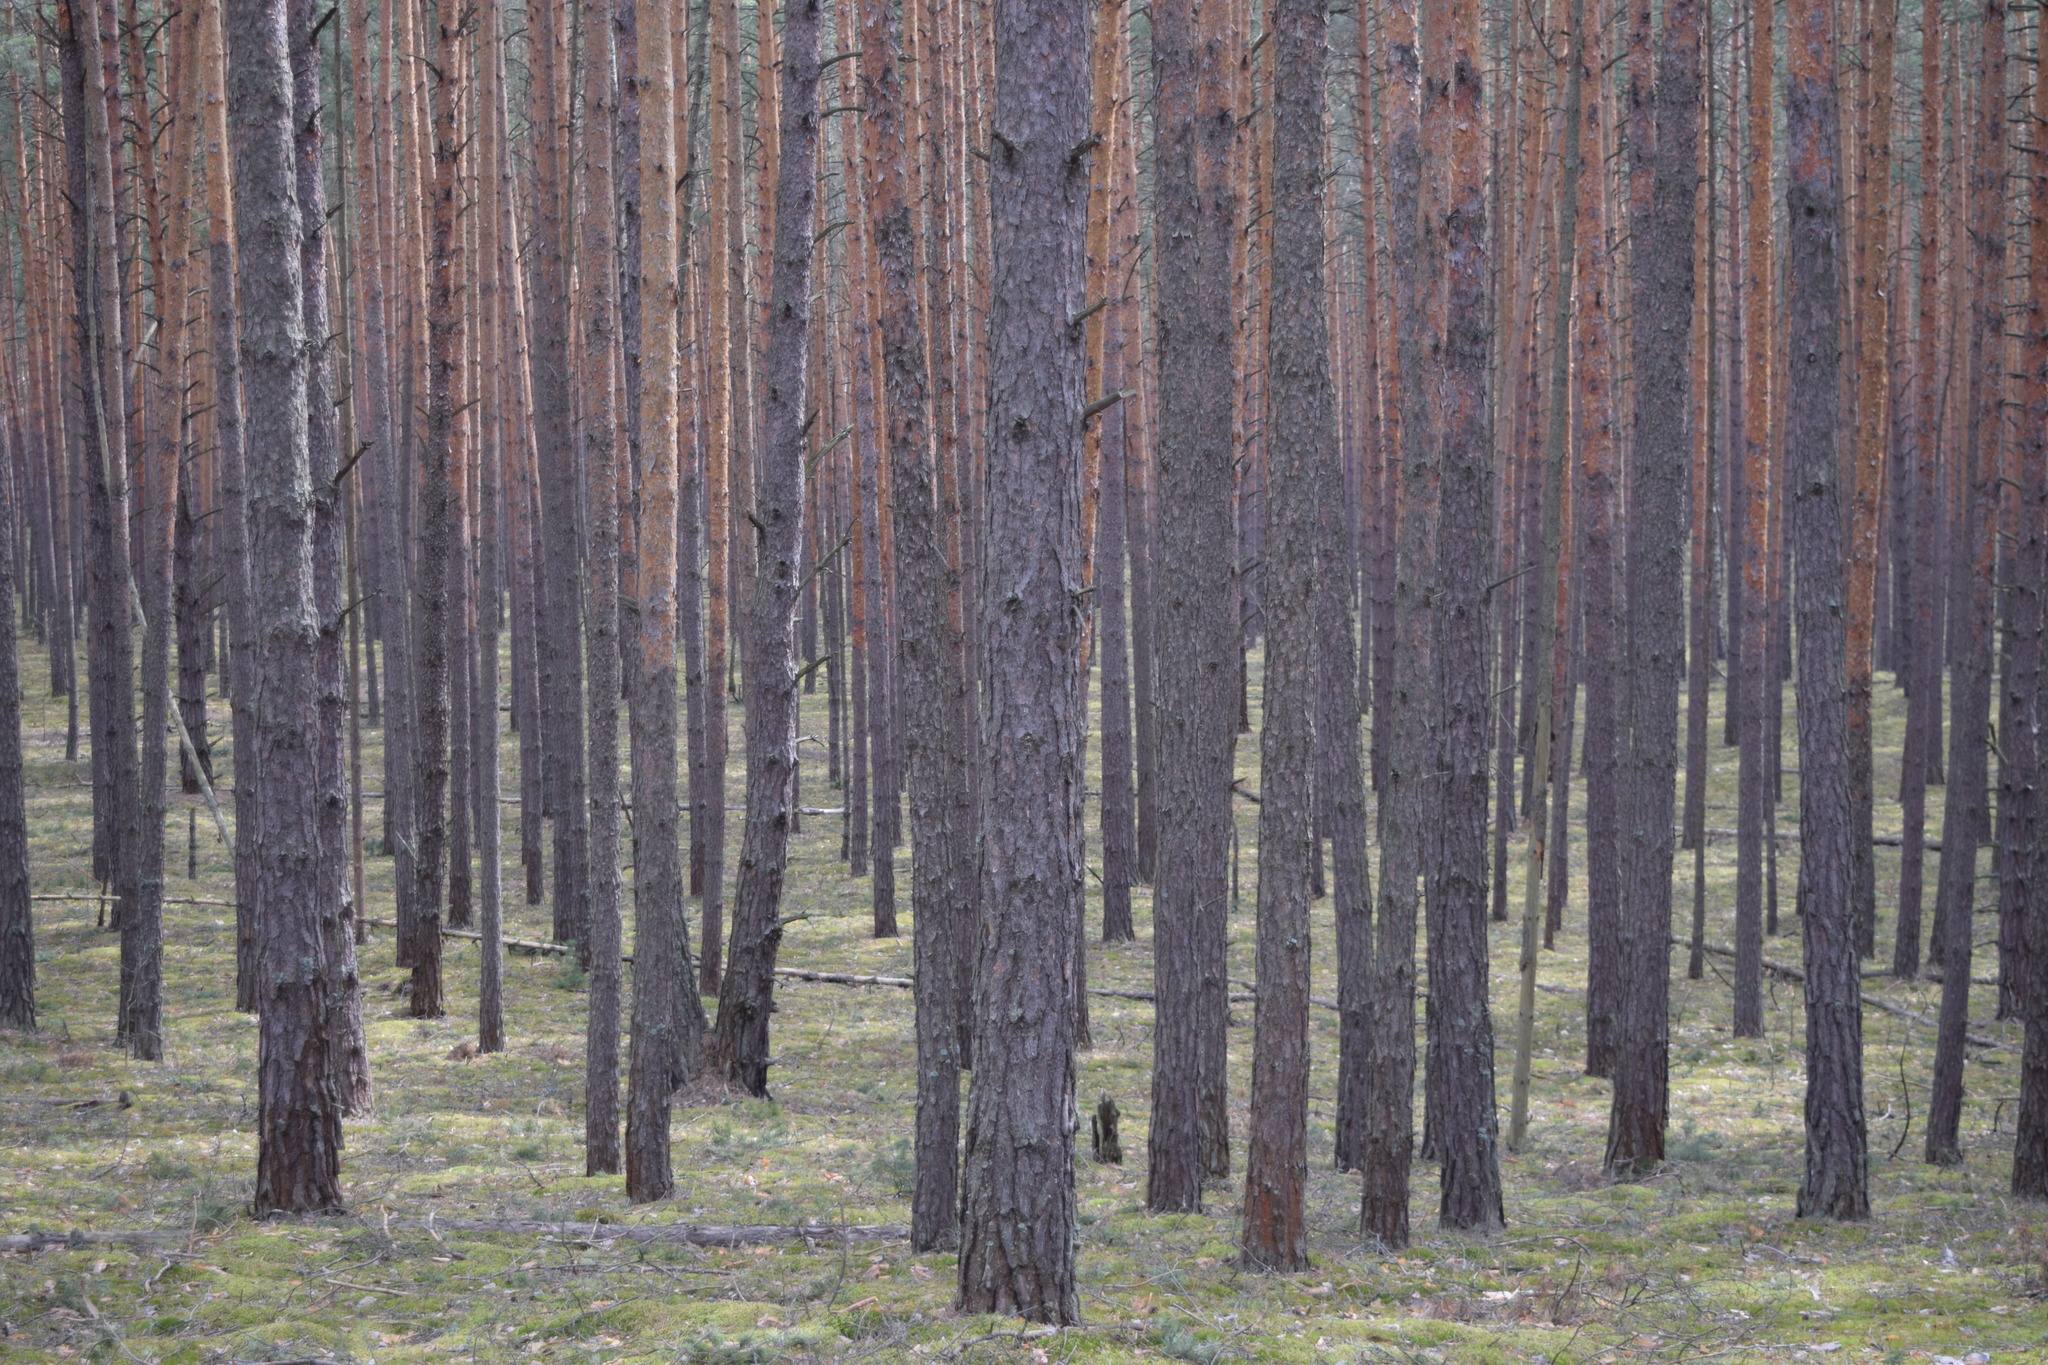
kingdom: Plantae
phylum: Tracheophyta
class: Pinopsida
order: Pinales
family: Pinaceae
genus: Pinus
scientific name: Pinus sylvestris
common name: Scots pine
